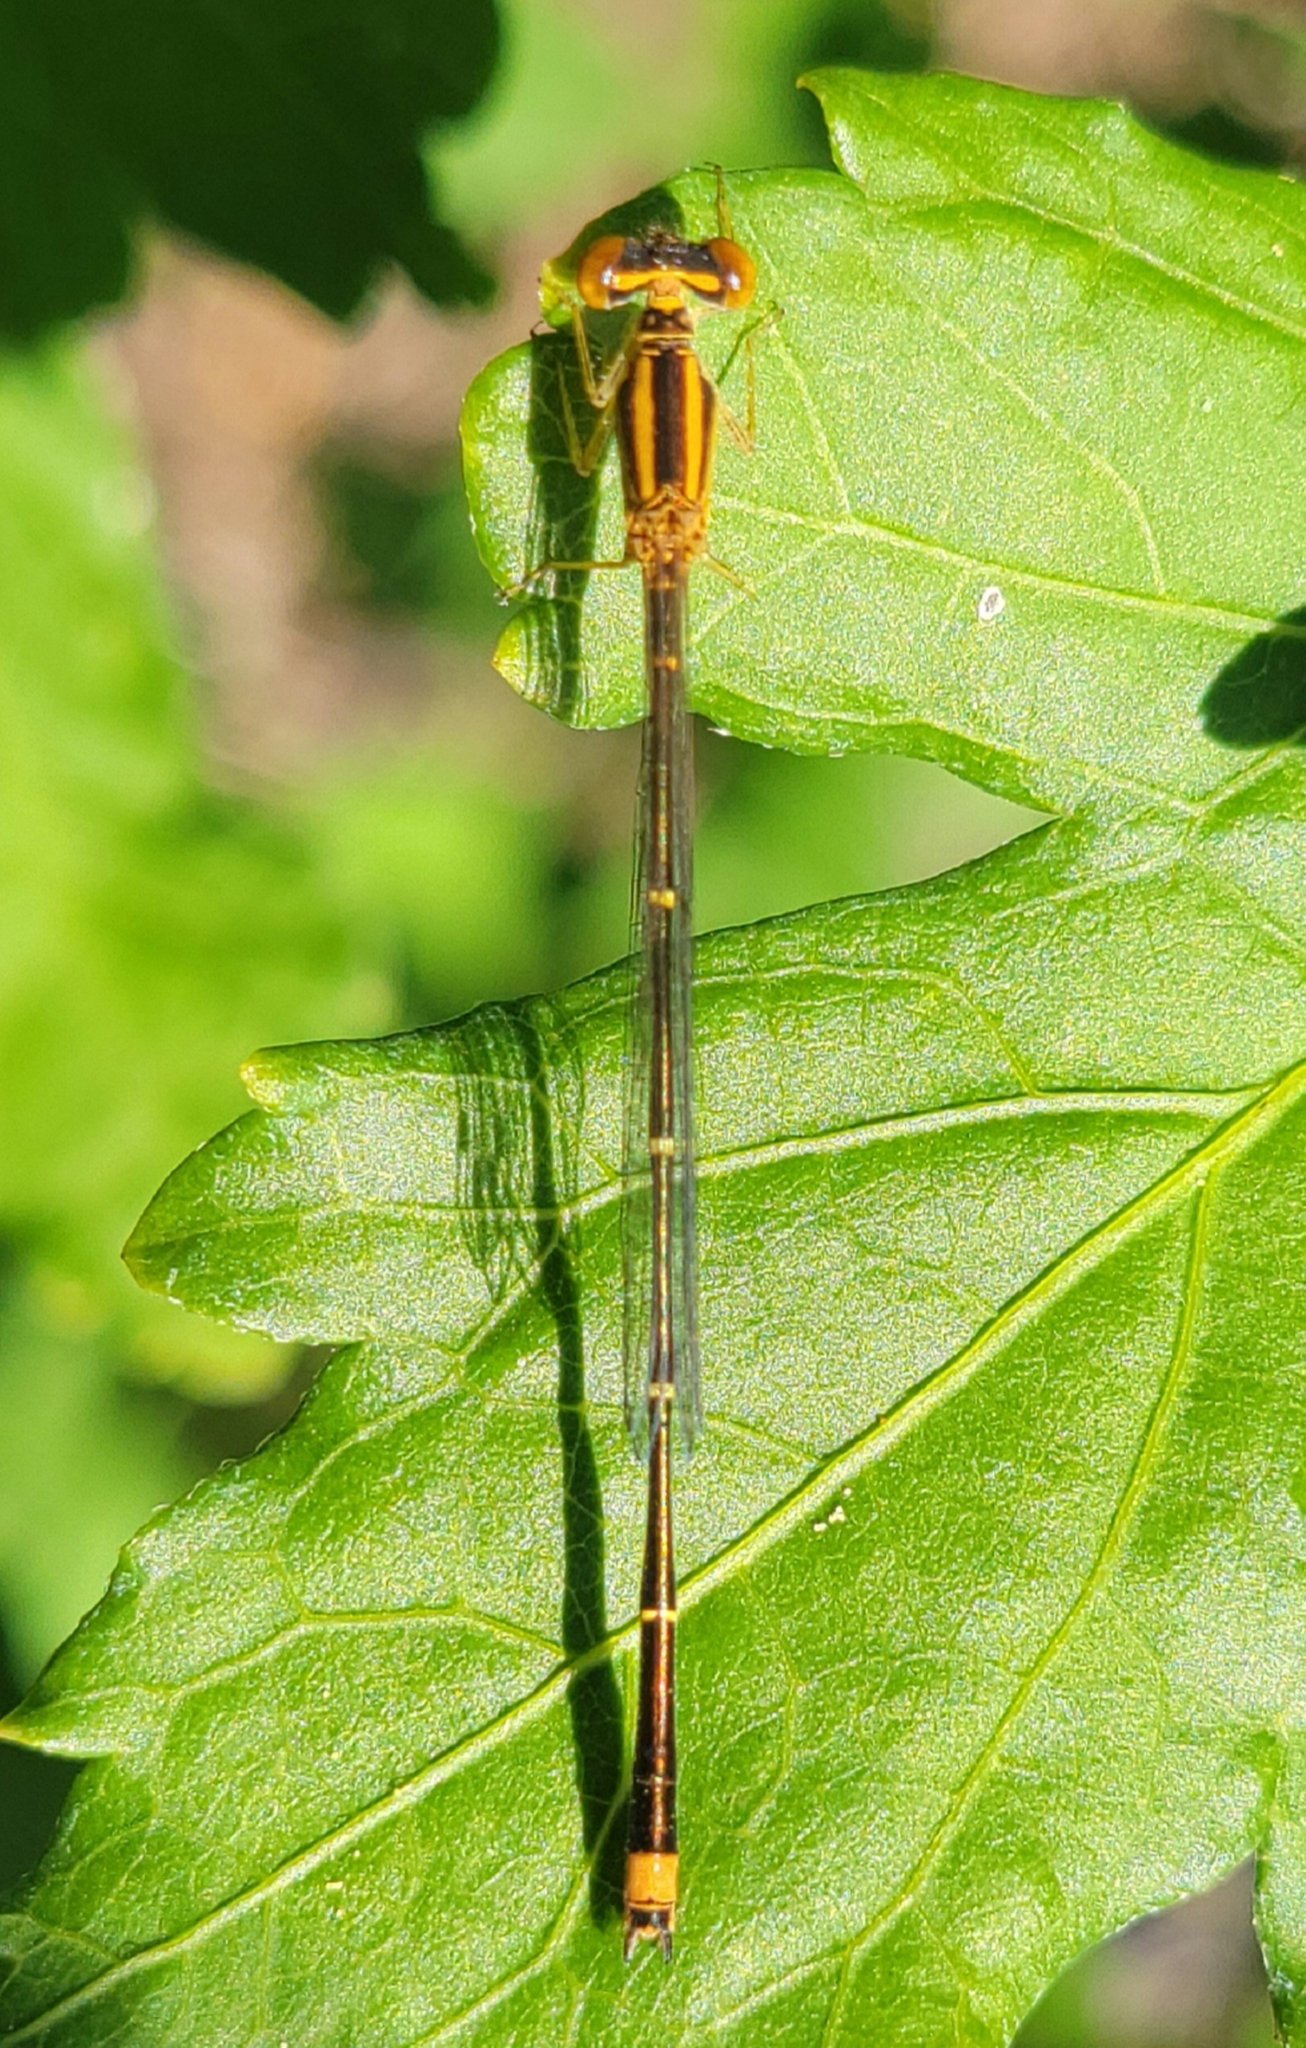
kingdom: Animalia
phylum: Arthropoda
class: Insecta
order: Odonata
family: Coenagrionidae
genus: Enallagma
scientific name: Enallagma signatum
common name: Orange bluet
